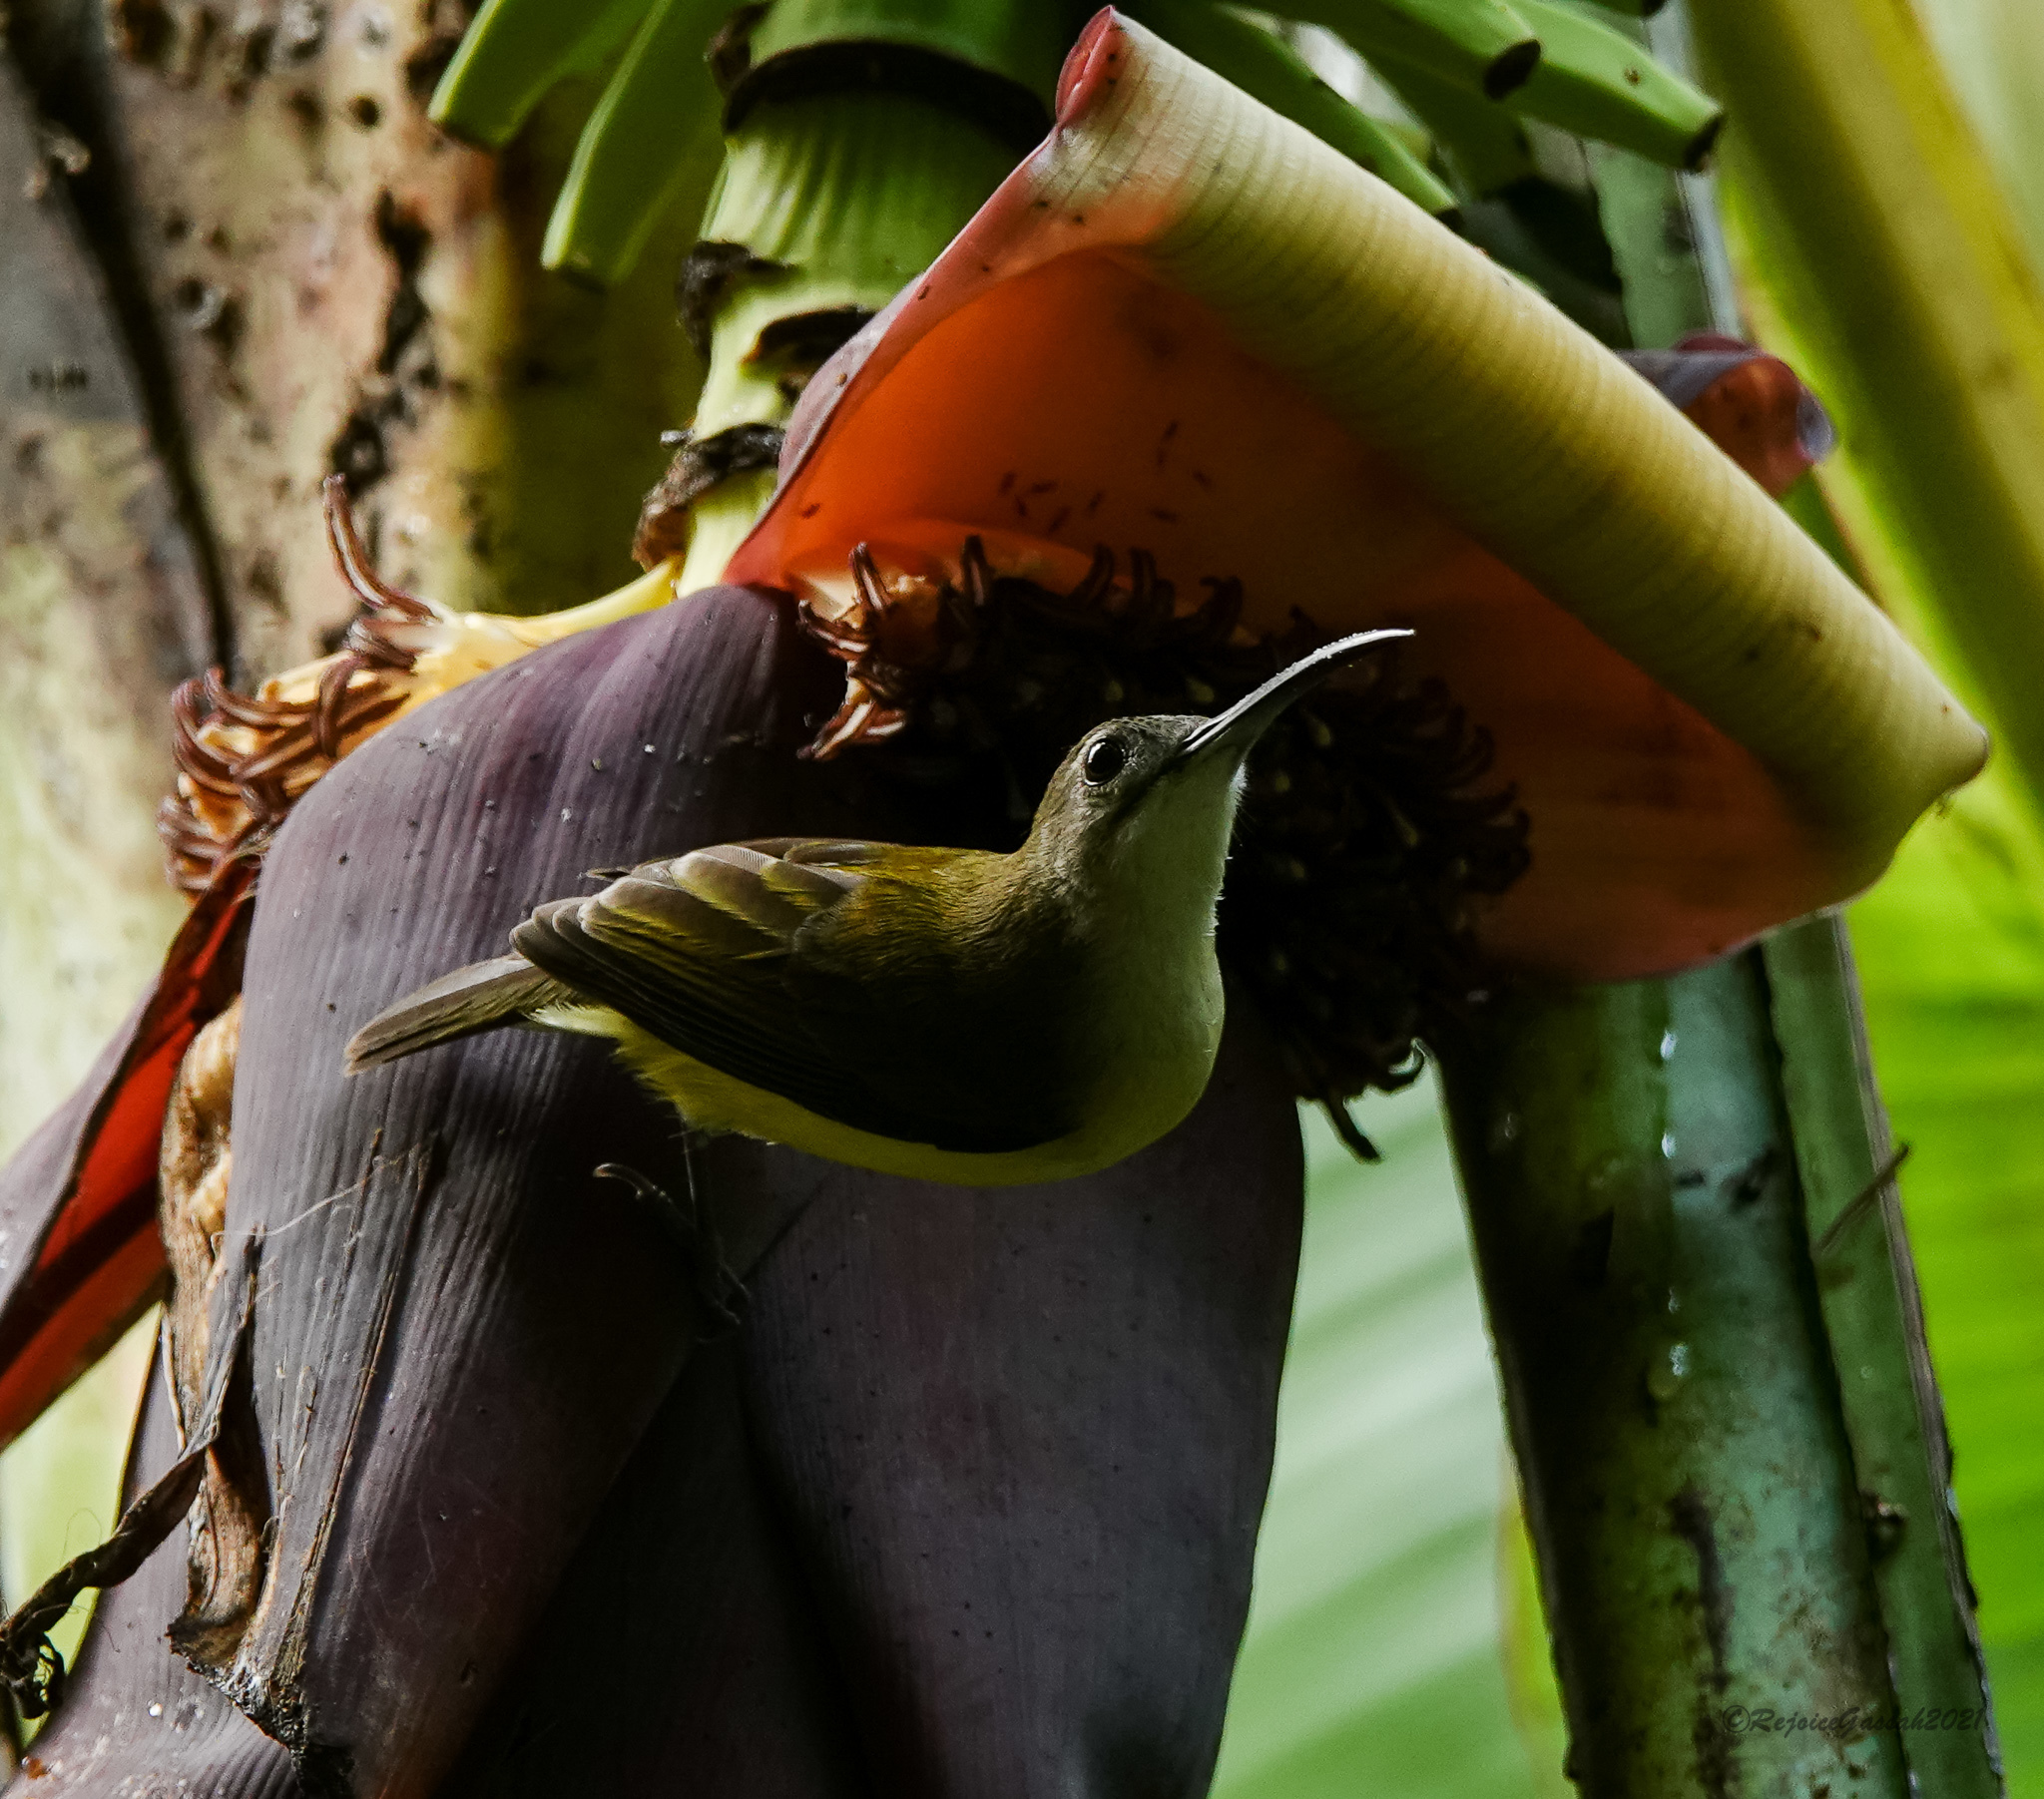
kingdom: Animalia
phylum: Chordata
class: Aves
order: Passeriformes
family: Nectariniidae
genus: Arachnothera
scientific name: Arachnothera longirostra
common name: Little spiderhunter
